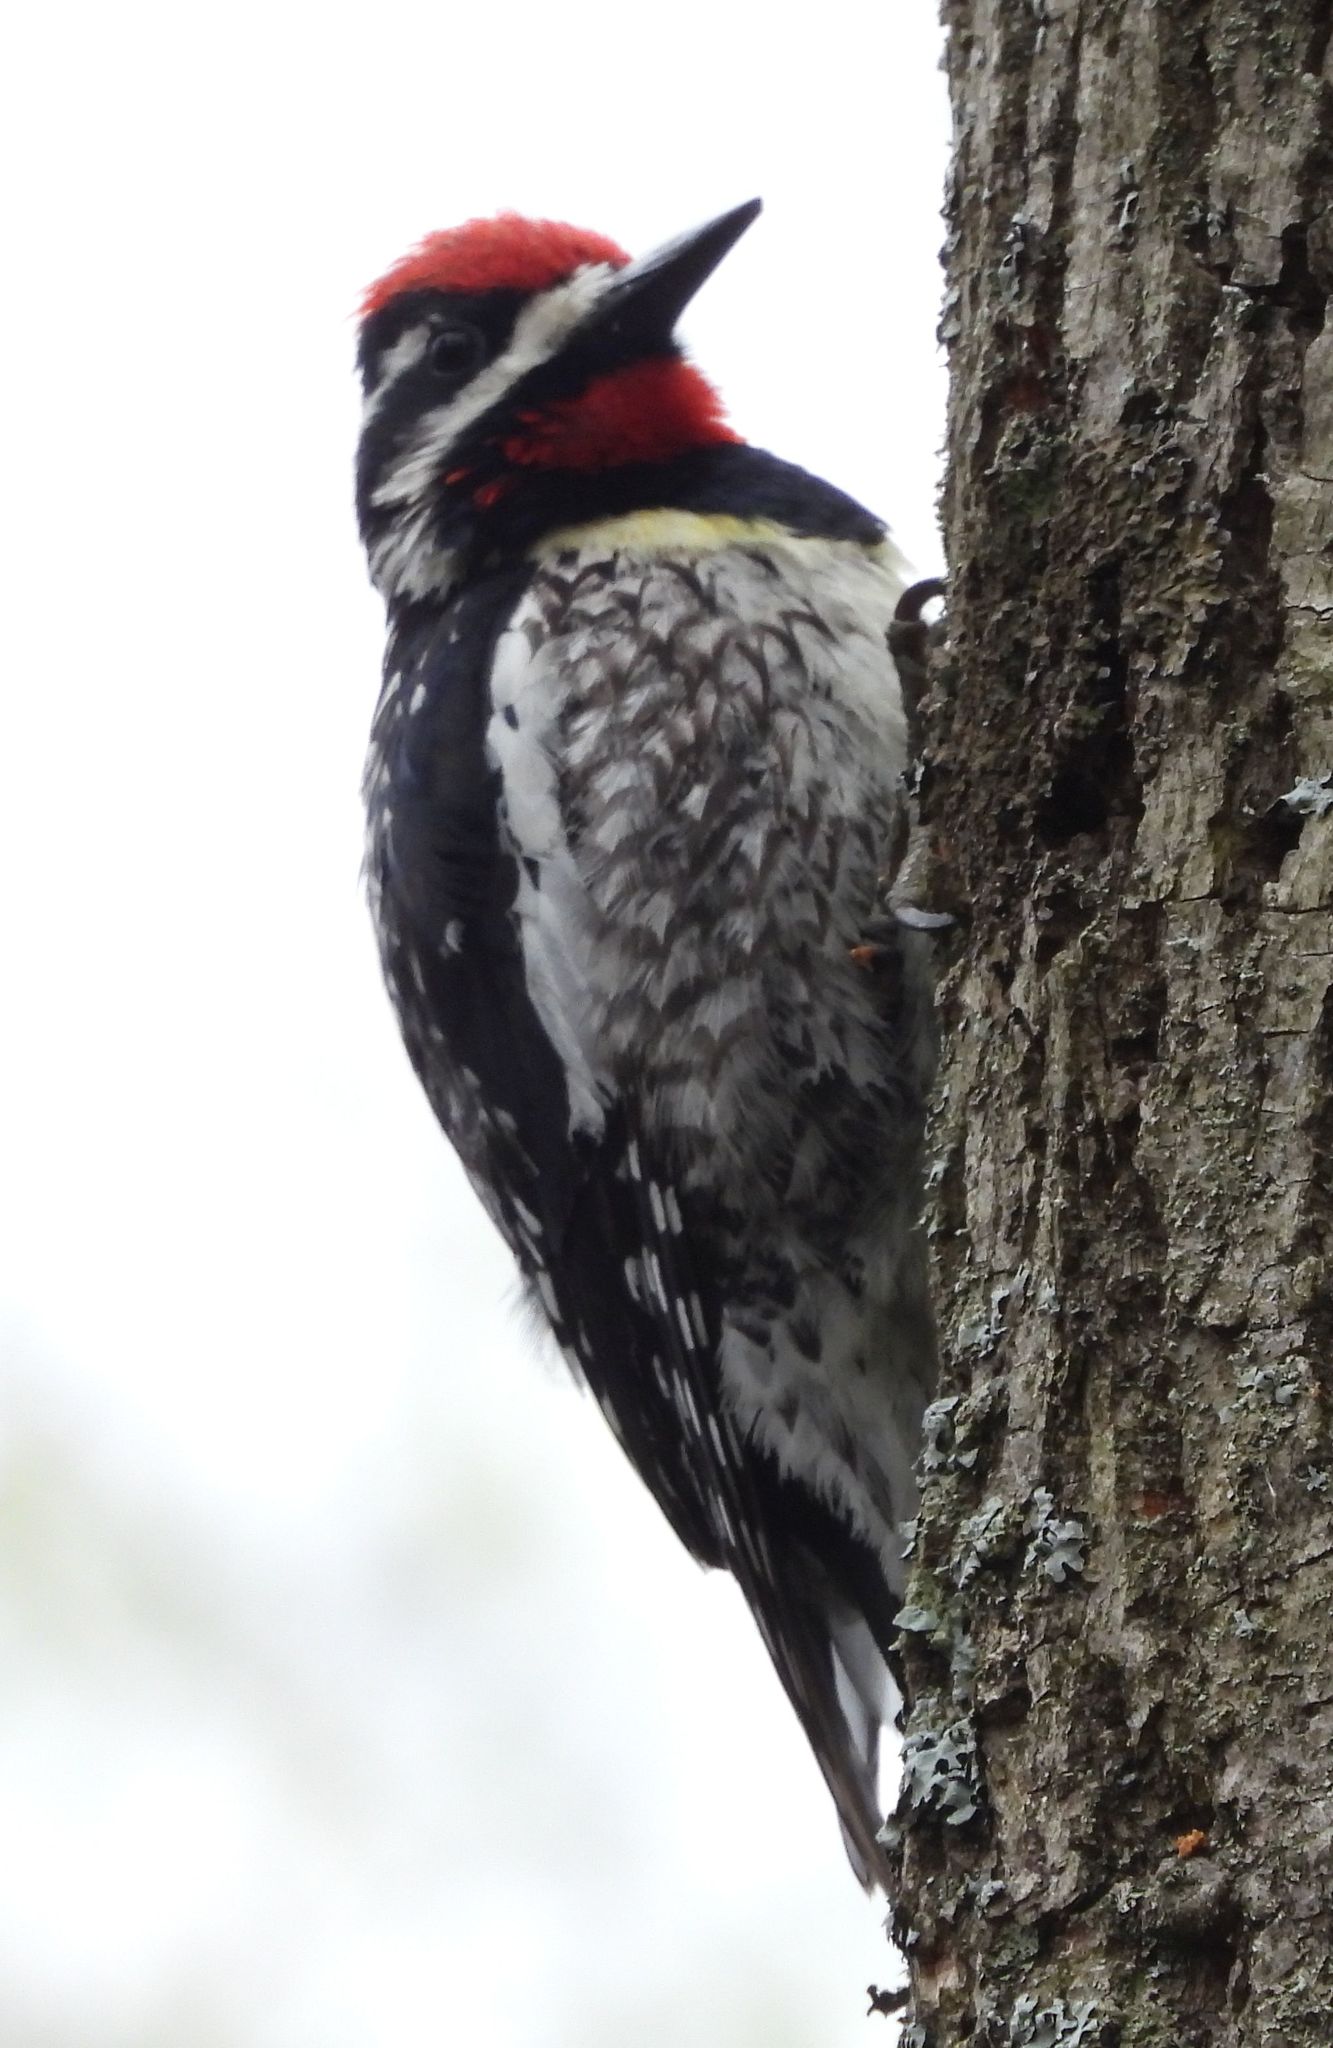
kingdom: Animalia
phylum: Chordata
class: Aves
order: Piciformes
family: Picidae
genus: Sphyrapicus
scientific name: Sphyrapicus varius
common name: Yellow-bellied sapsucker
